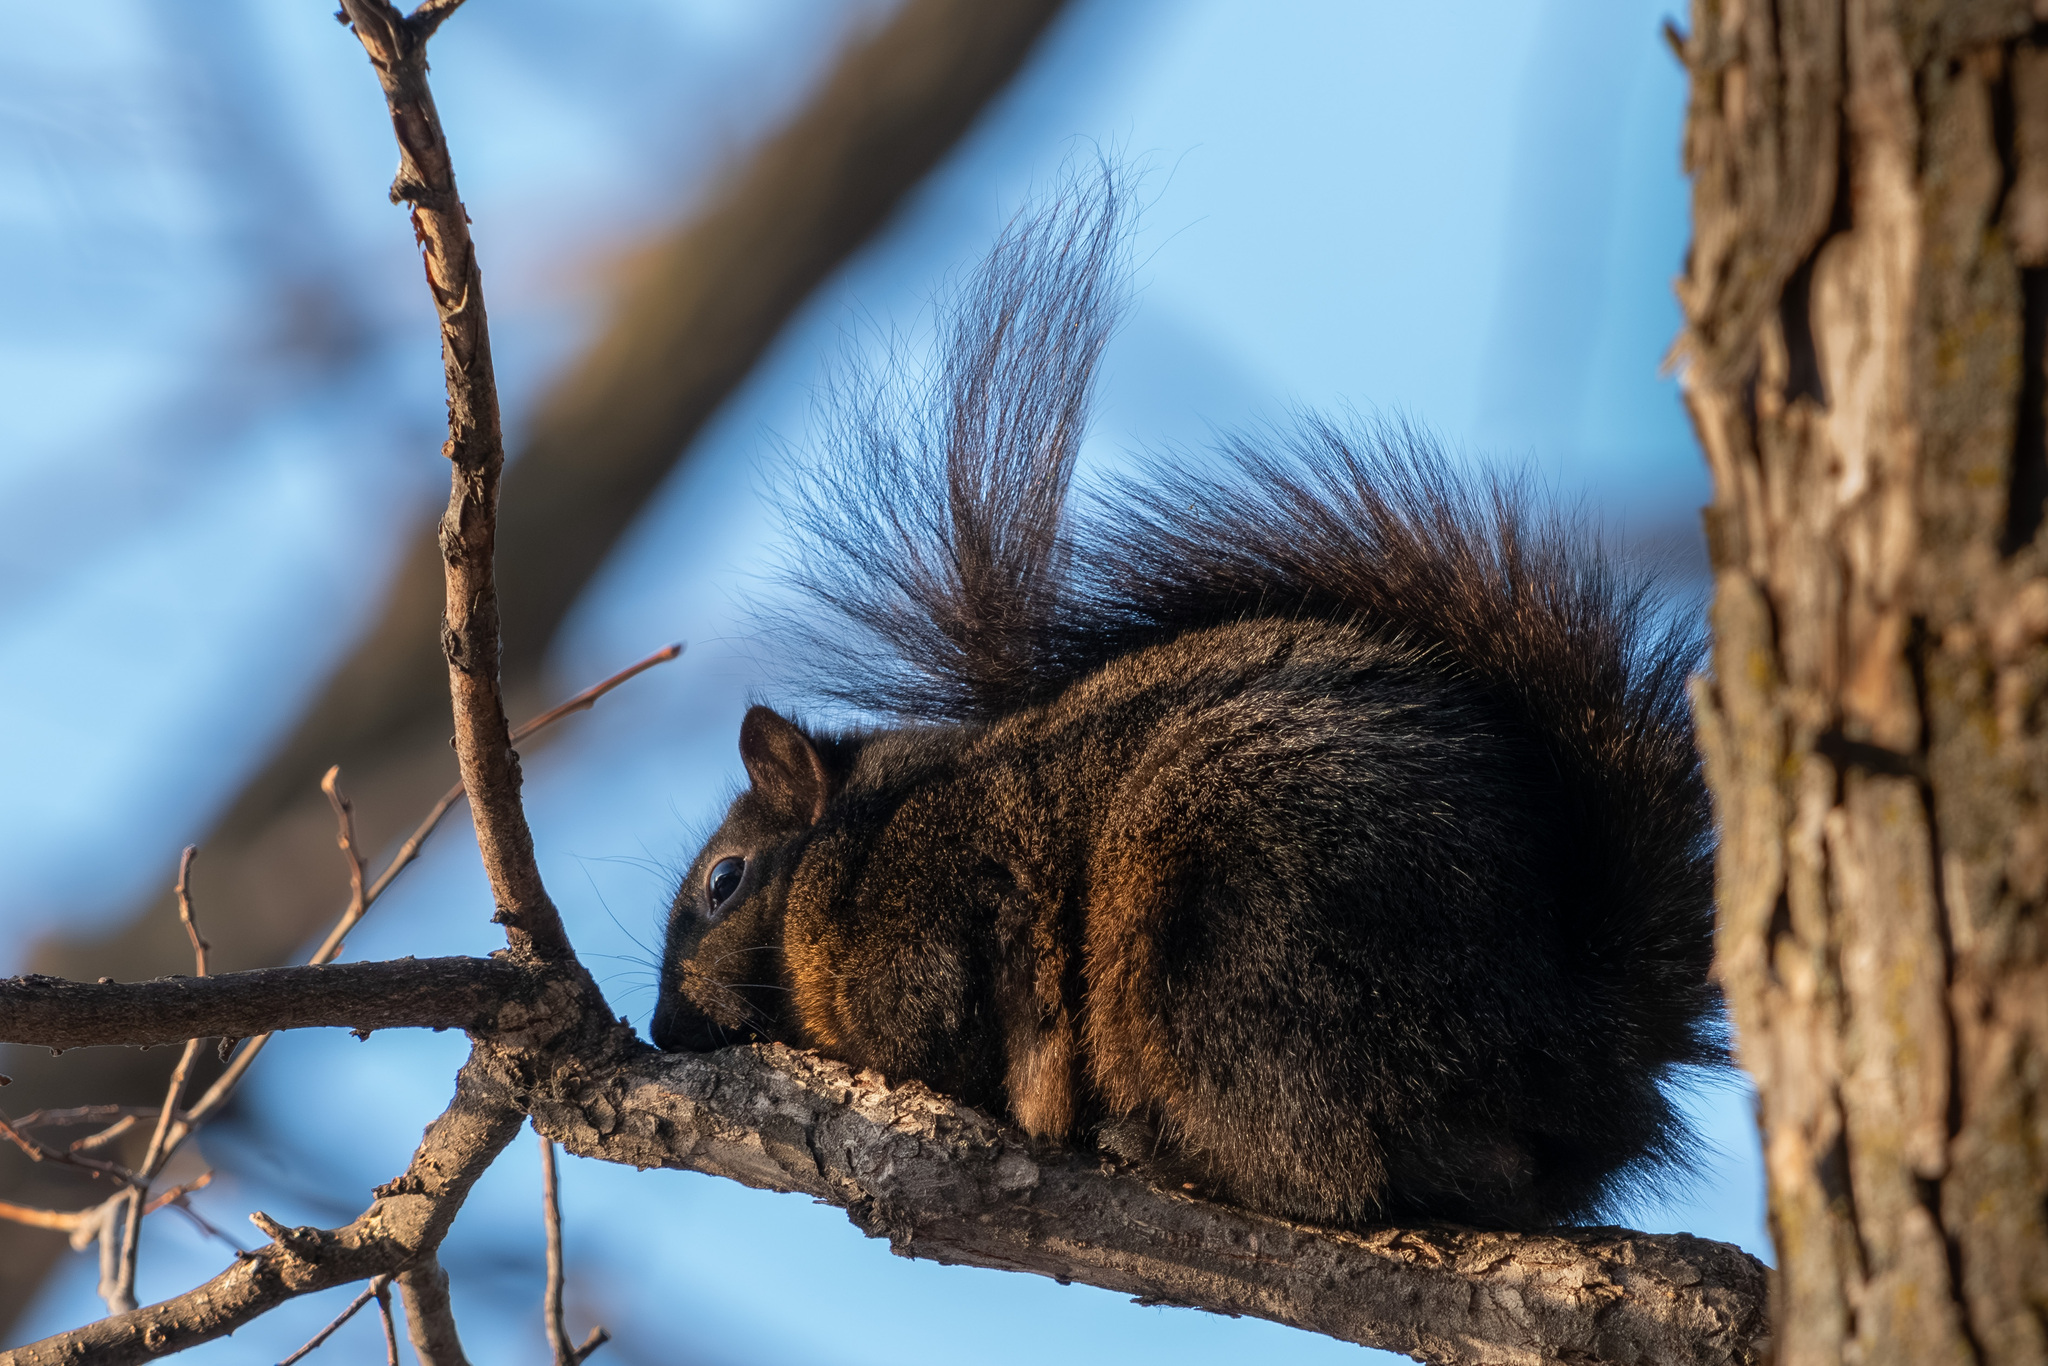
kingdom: Animalia
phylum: Chordata
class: Mammalia
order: Rodentia
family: Sciuridae
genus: Sciurus
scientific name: Sciurus carolinensis
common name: Eastern gray squirrel
